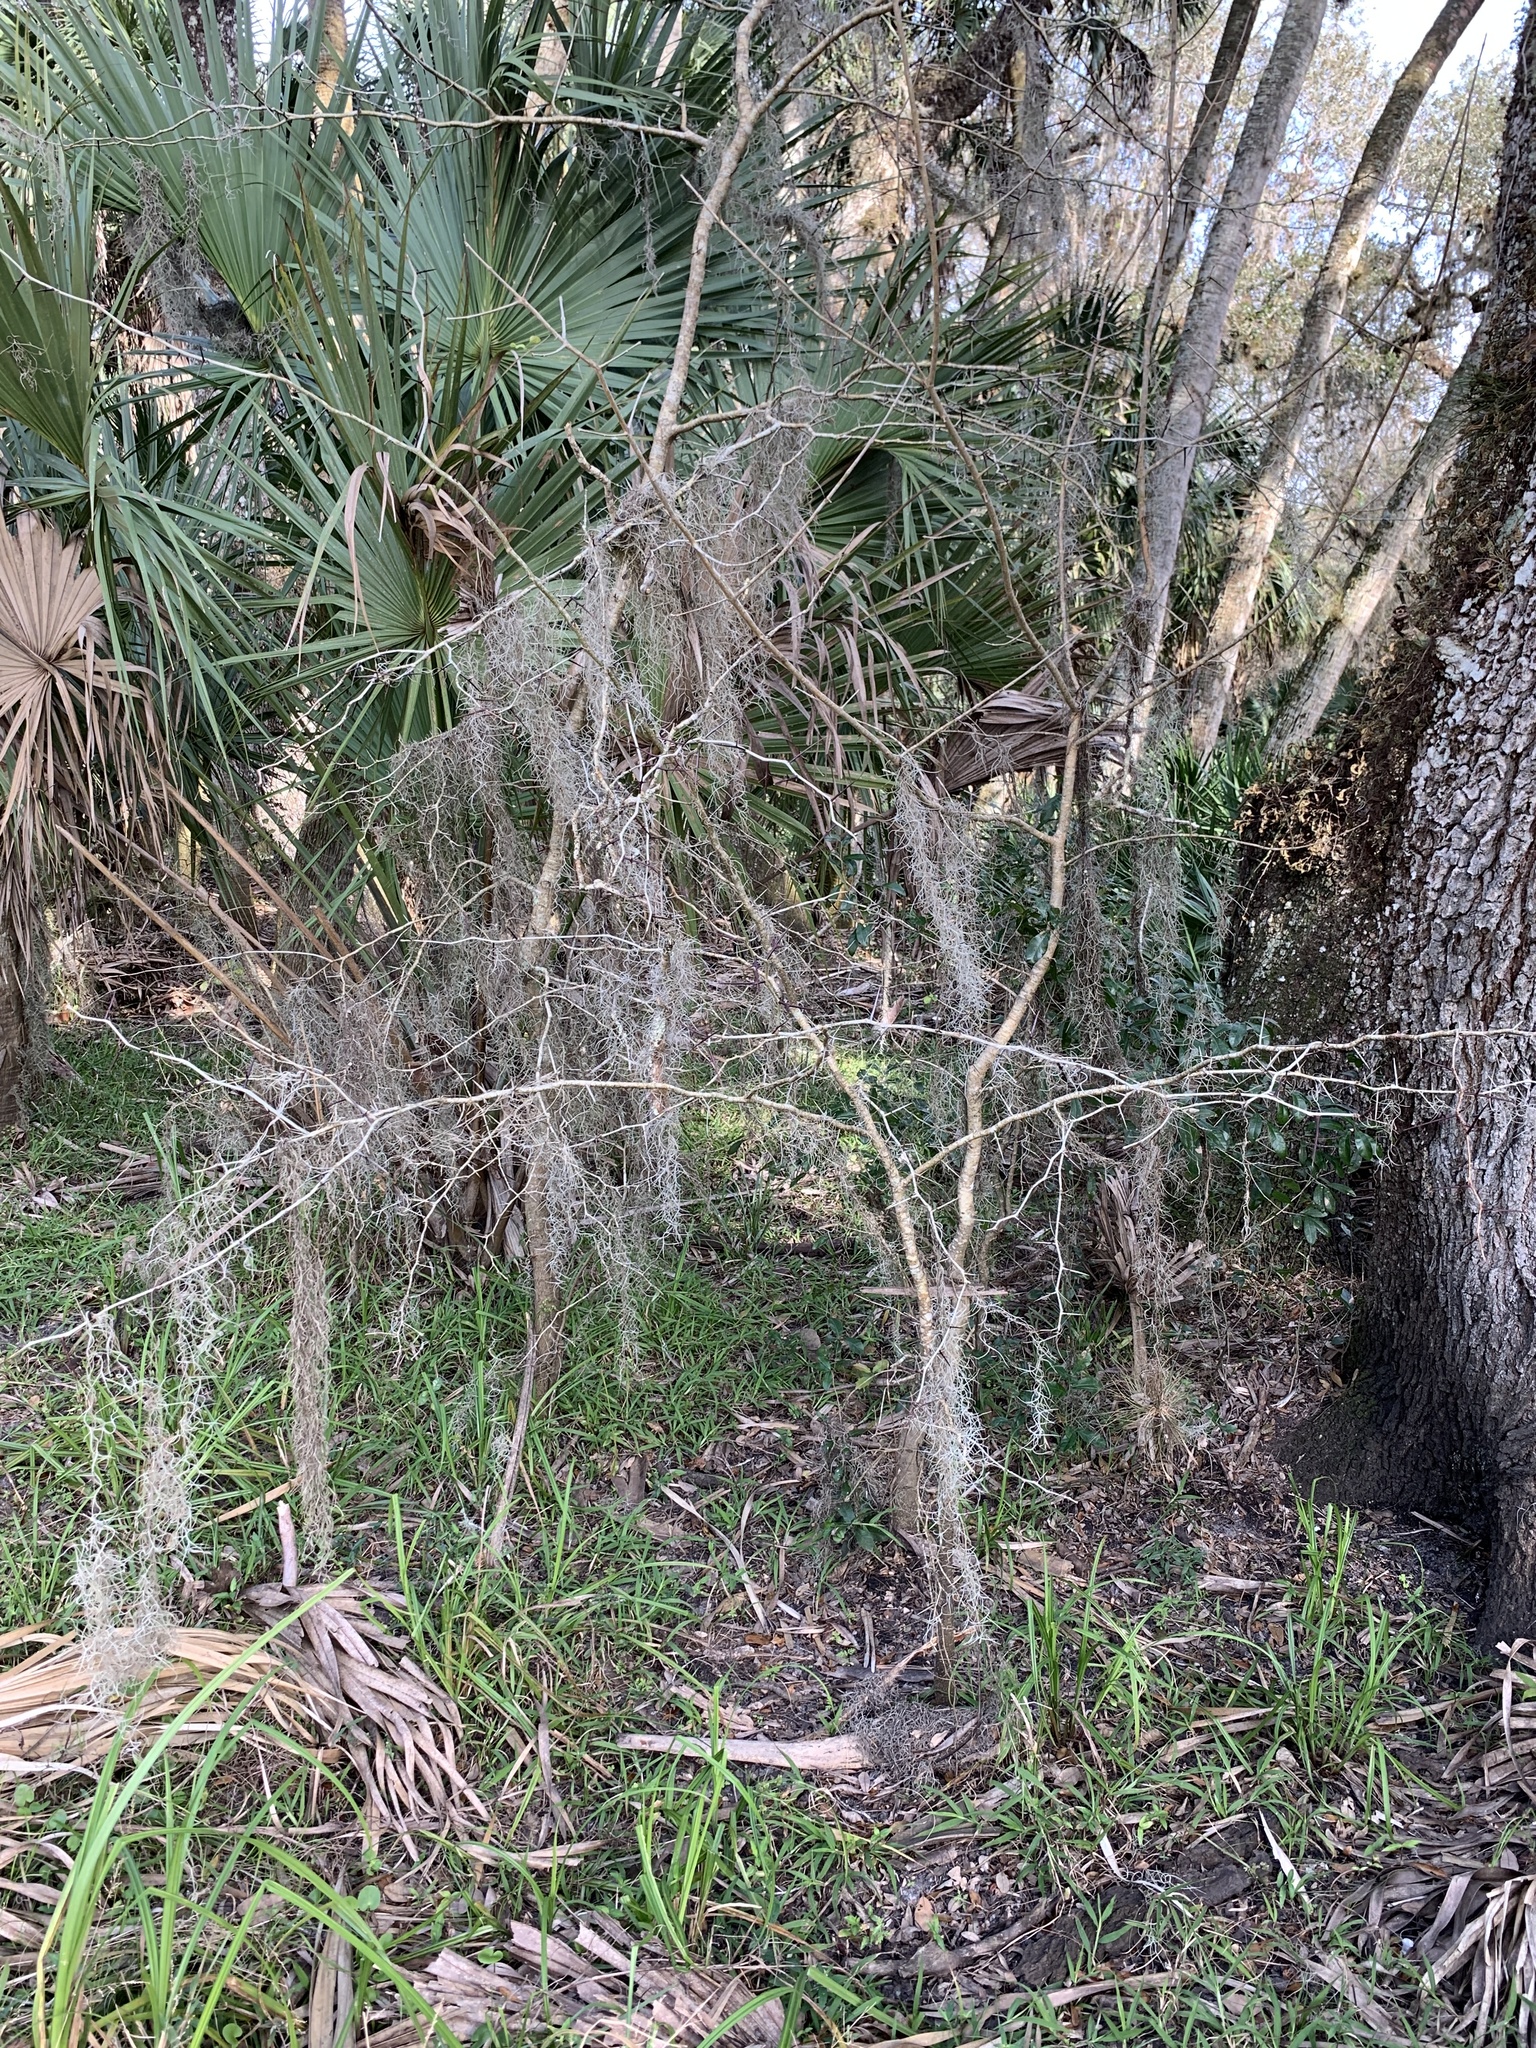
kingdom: Plantae
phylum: Tracheophyta
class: Magnoliopsida
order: Fabales
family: Fabaceae
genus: Gleditsia
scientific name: Gleditsia aquatica
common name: Swamp-locust
